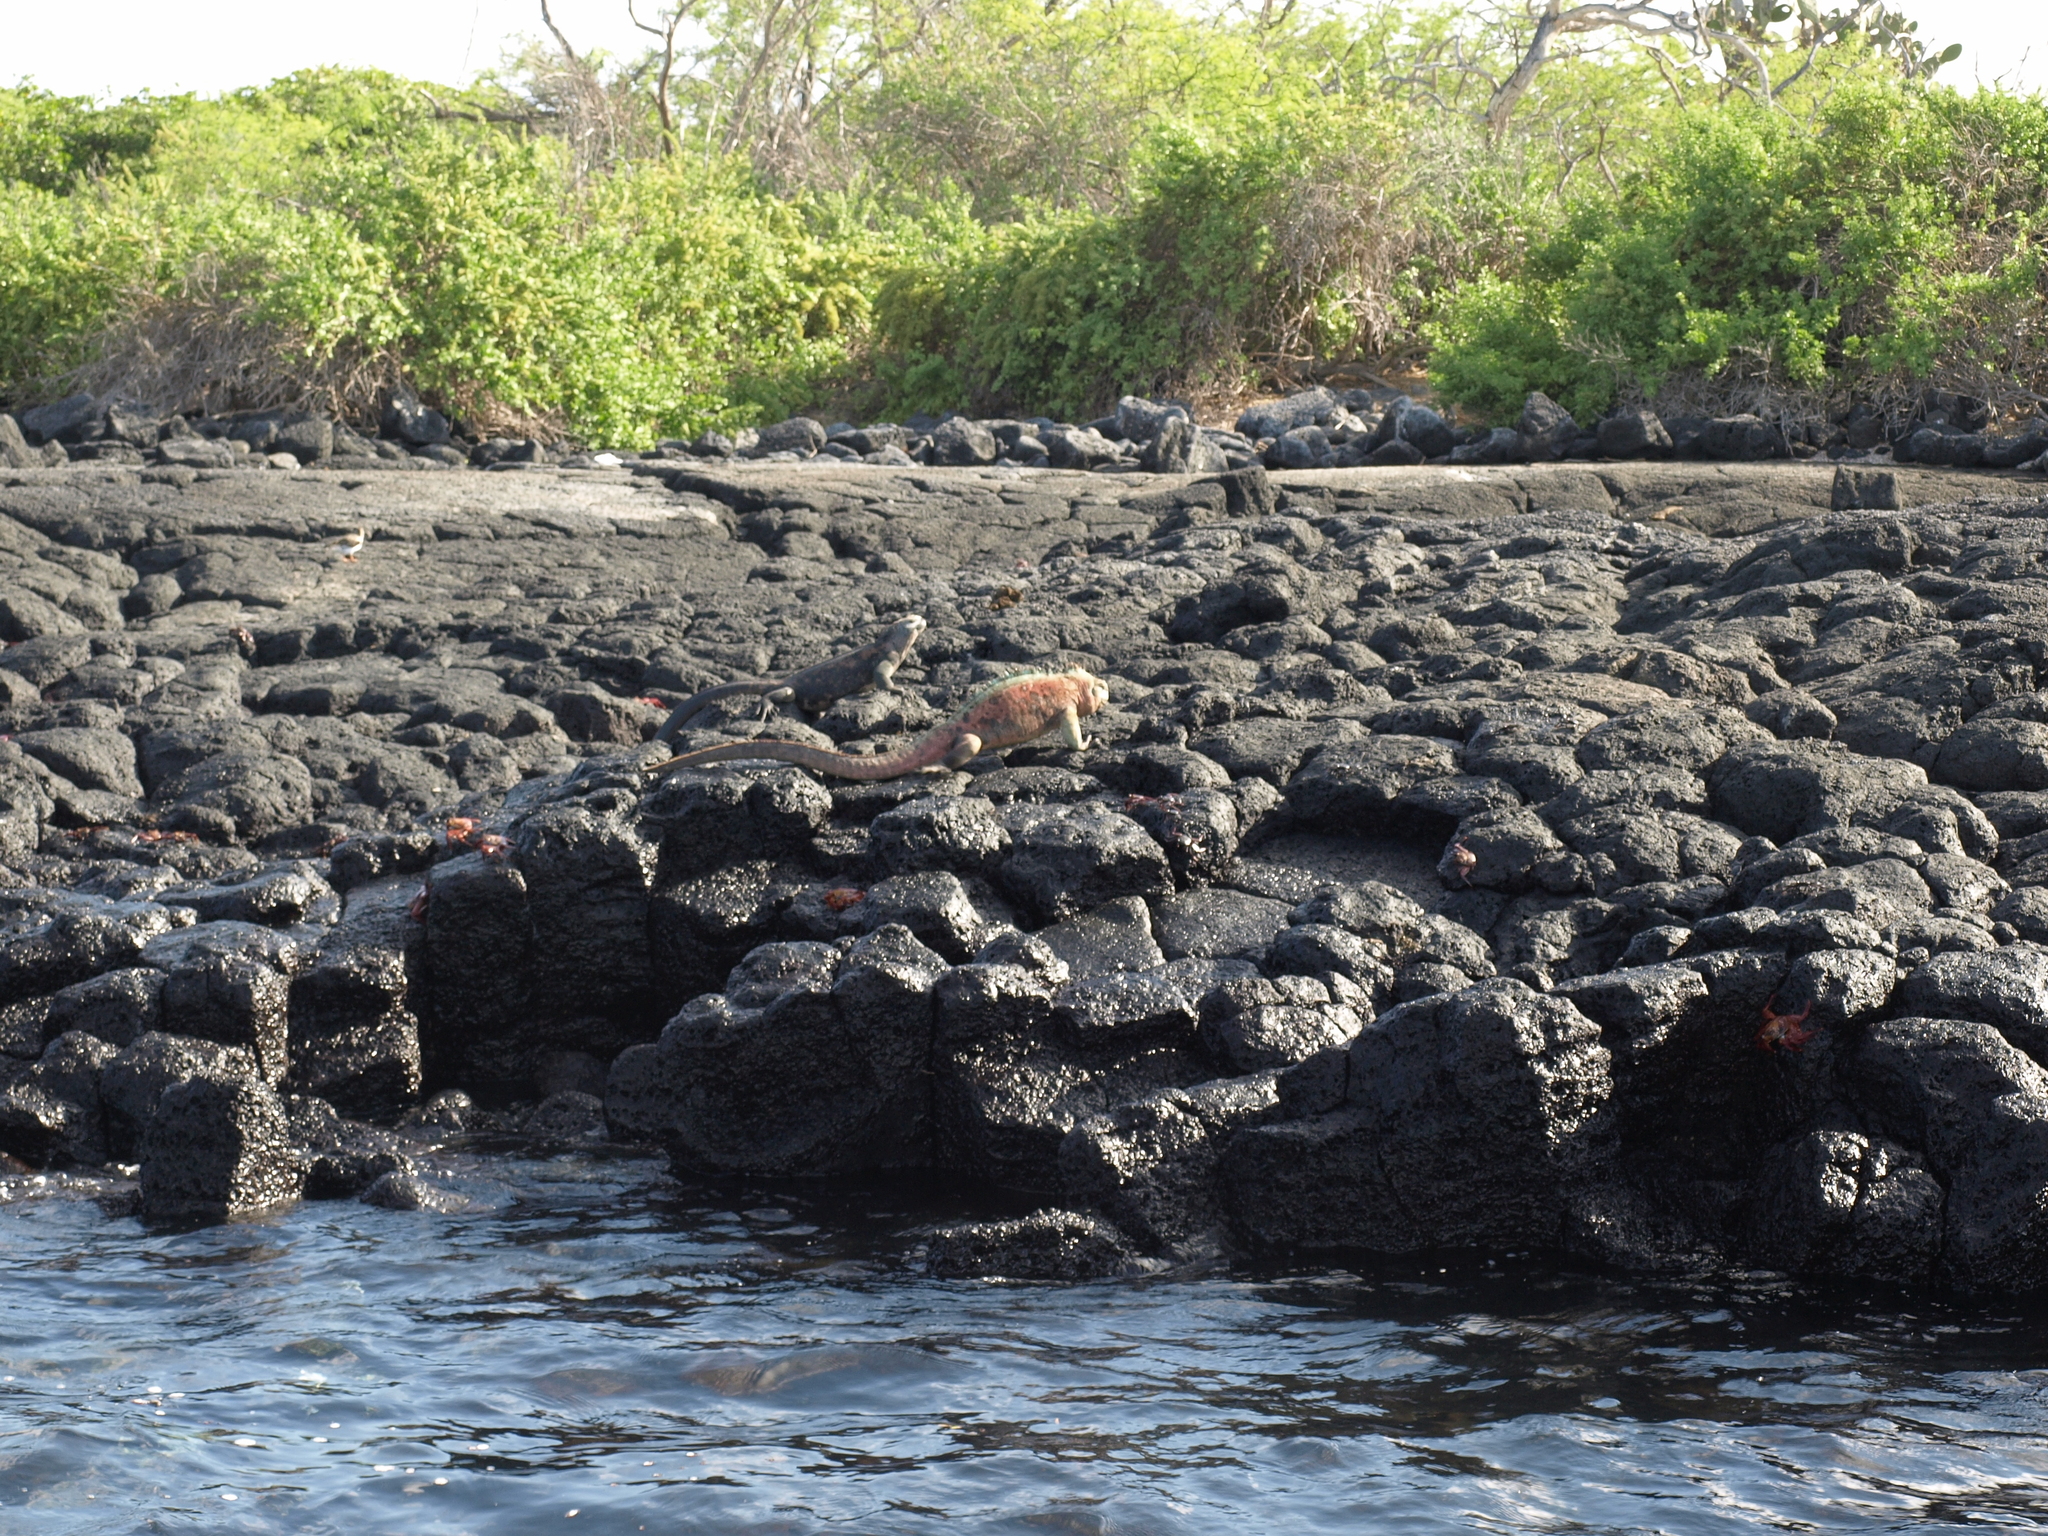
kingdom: Animalia
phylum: Chordata
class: Squamata
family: Iguanidae
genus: Amblyrhynchus
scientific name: Amblyrhynchus cristatus
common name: Marine iguana
